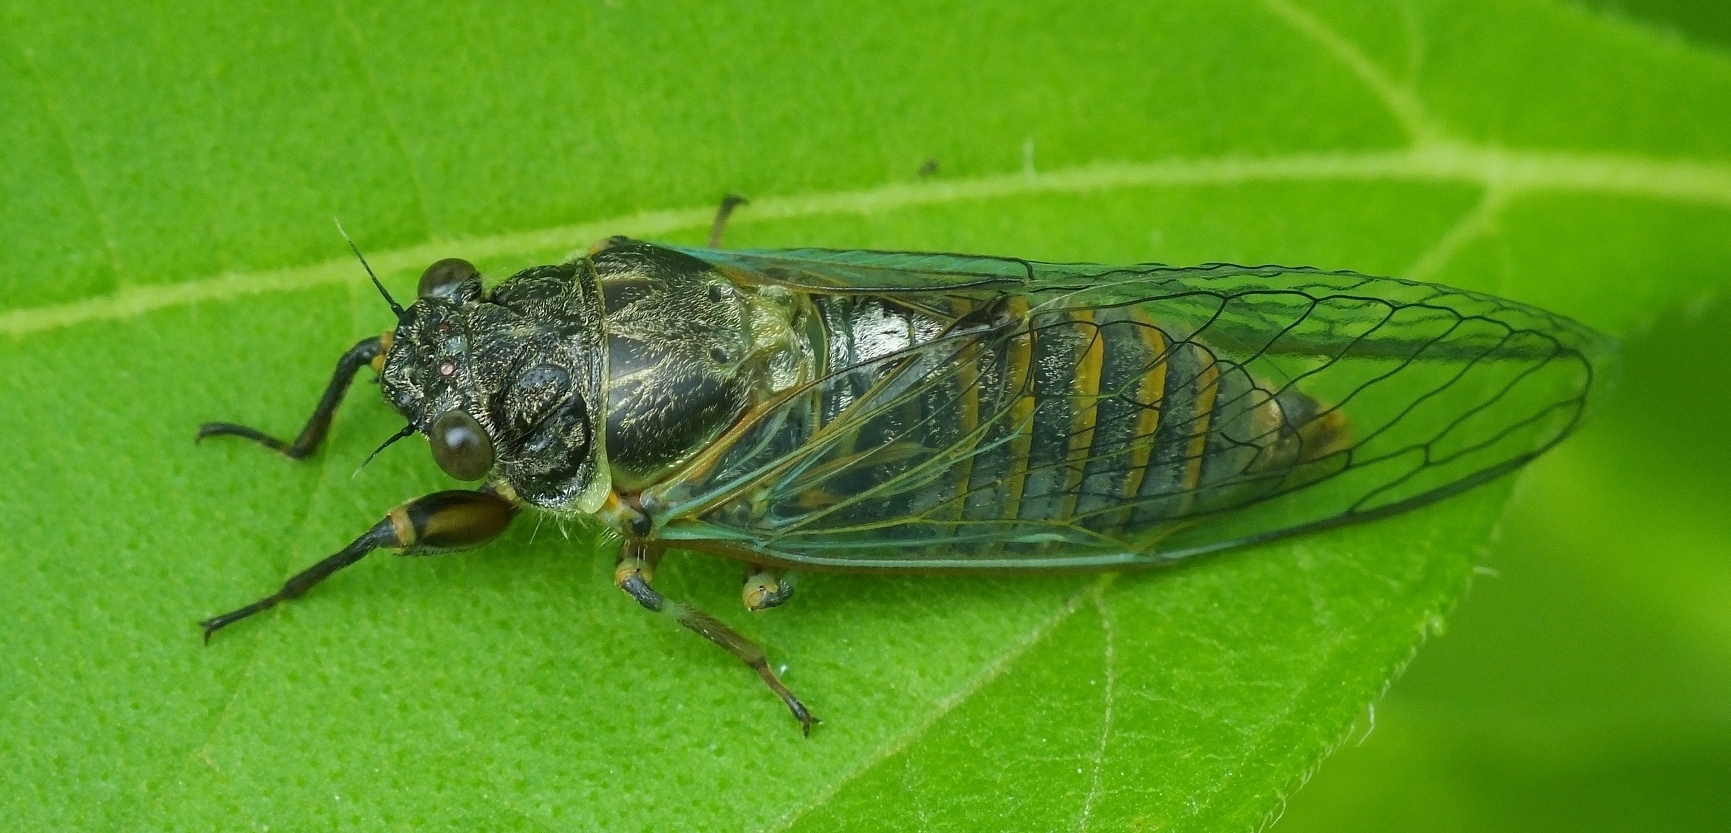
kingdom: Animalia
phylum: Arthropoda
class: Insecta
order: Hemiptera
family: Cicadidae
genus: Cicadetta
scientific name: Cicadetta montana
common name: New forest cicada
